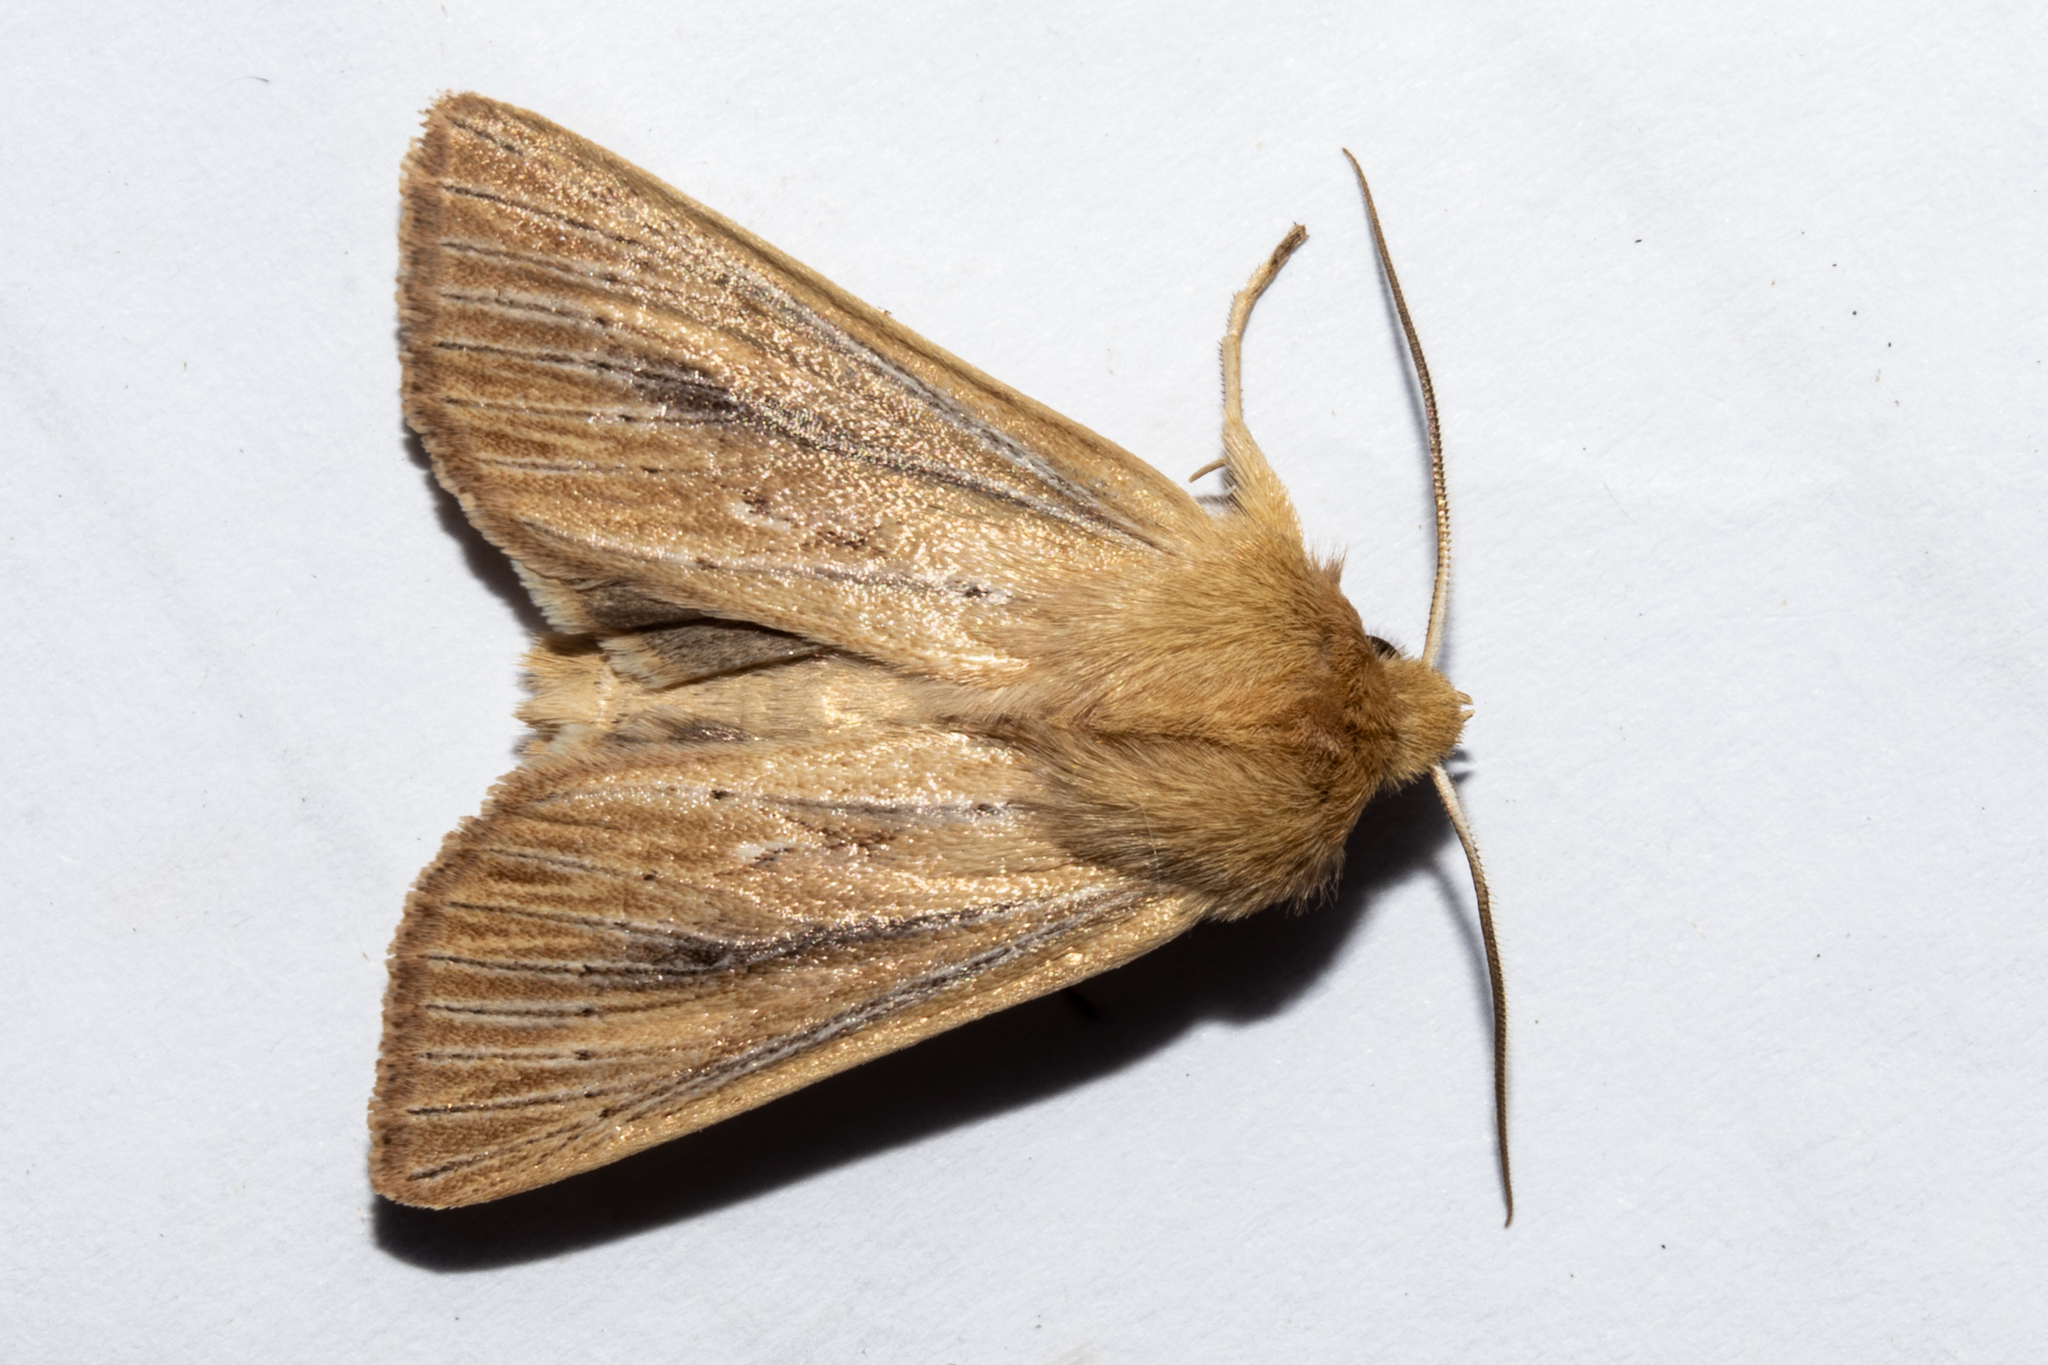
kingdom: Animalia
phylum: Arthropoda
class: Insecta
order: Lepidoptera
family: Noctuidae
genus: Ichneutica
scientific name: Ichneutica arotis
